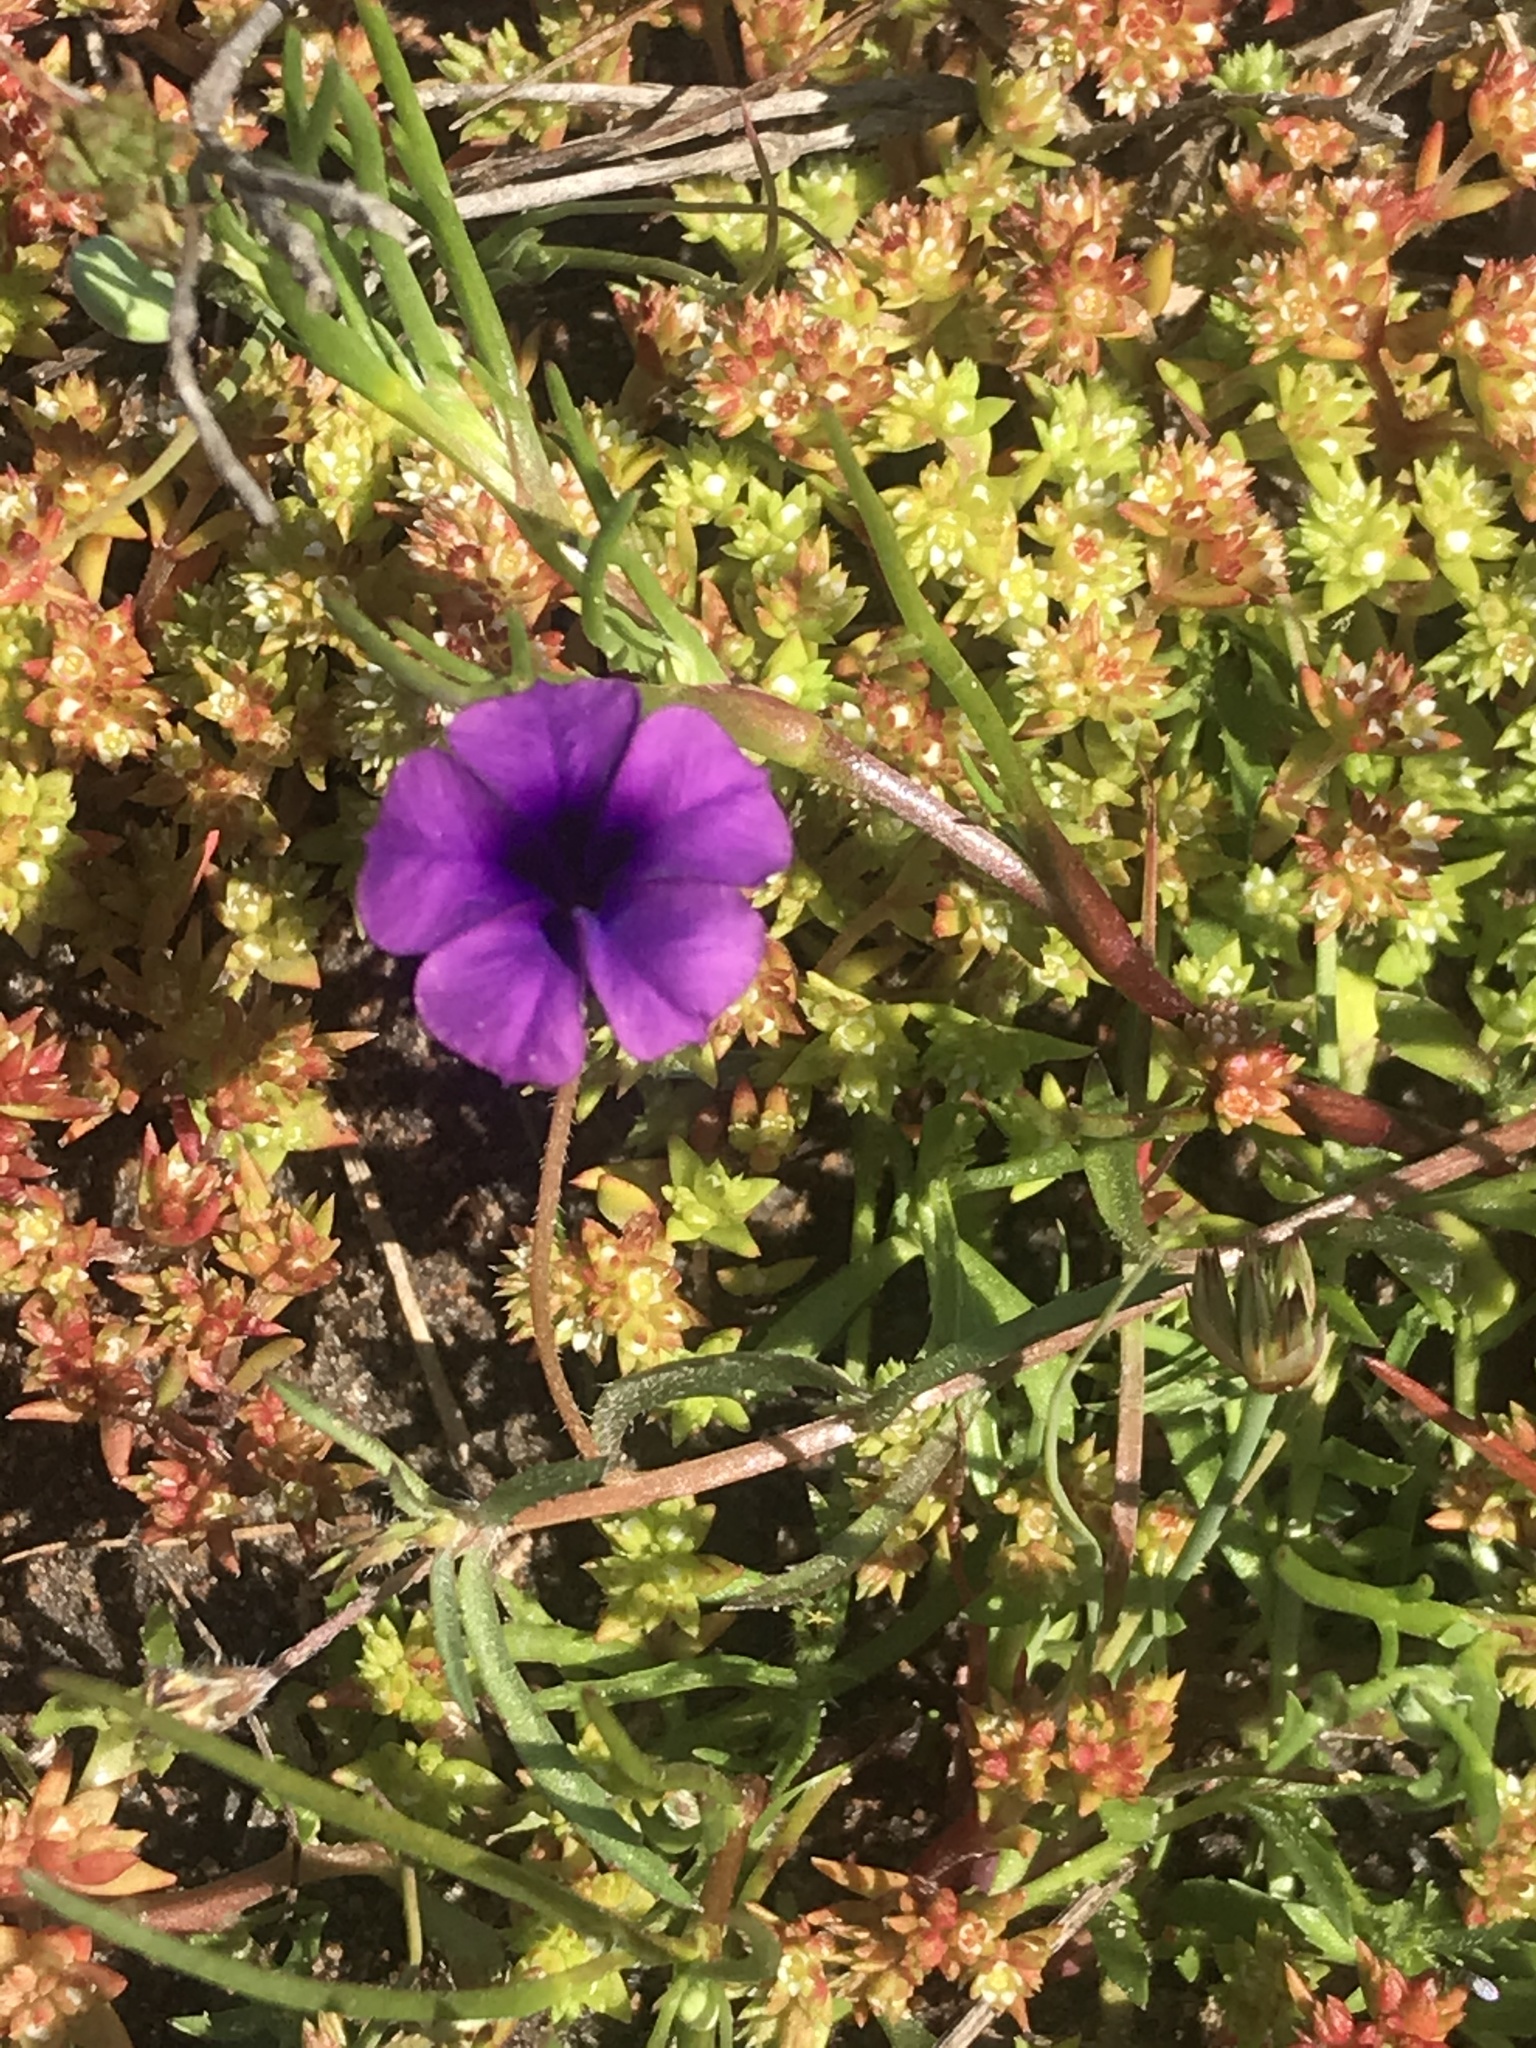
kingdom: Plantae
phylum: Tracheophyta
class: Magnoliopsida
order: Asterales
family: Campanulaceae
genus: Monopsis
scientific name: Monopsis debilis
